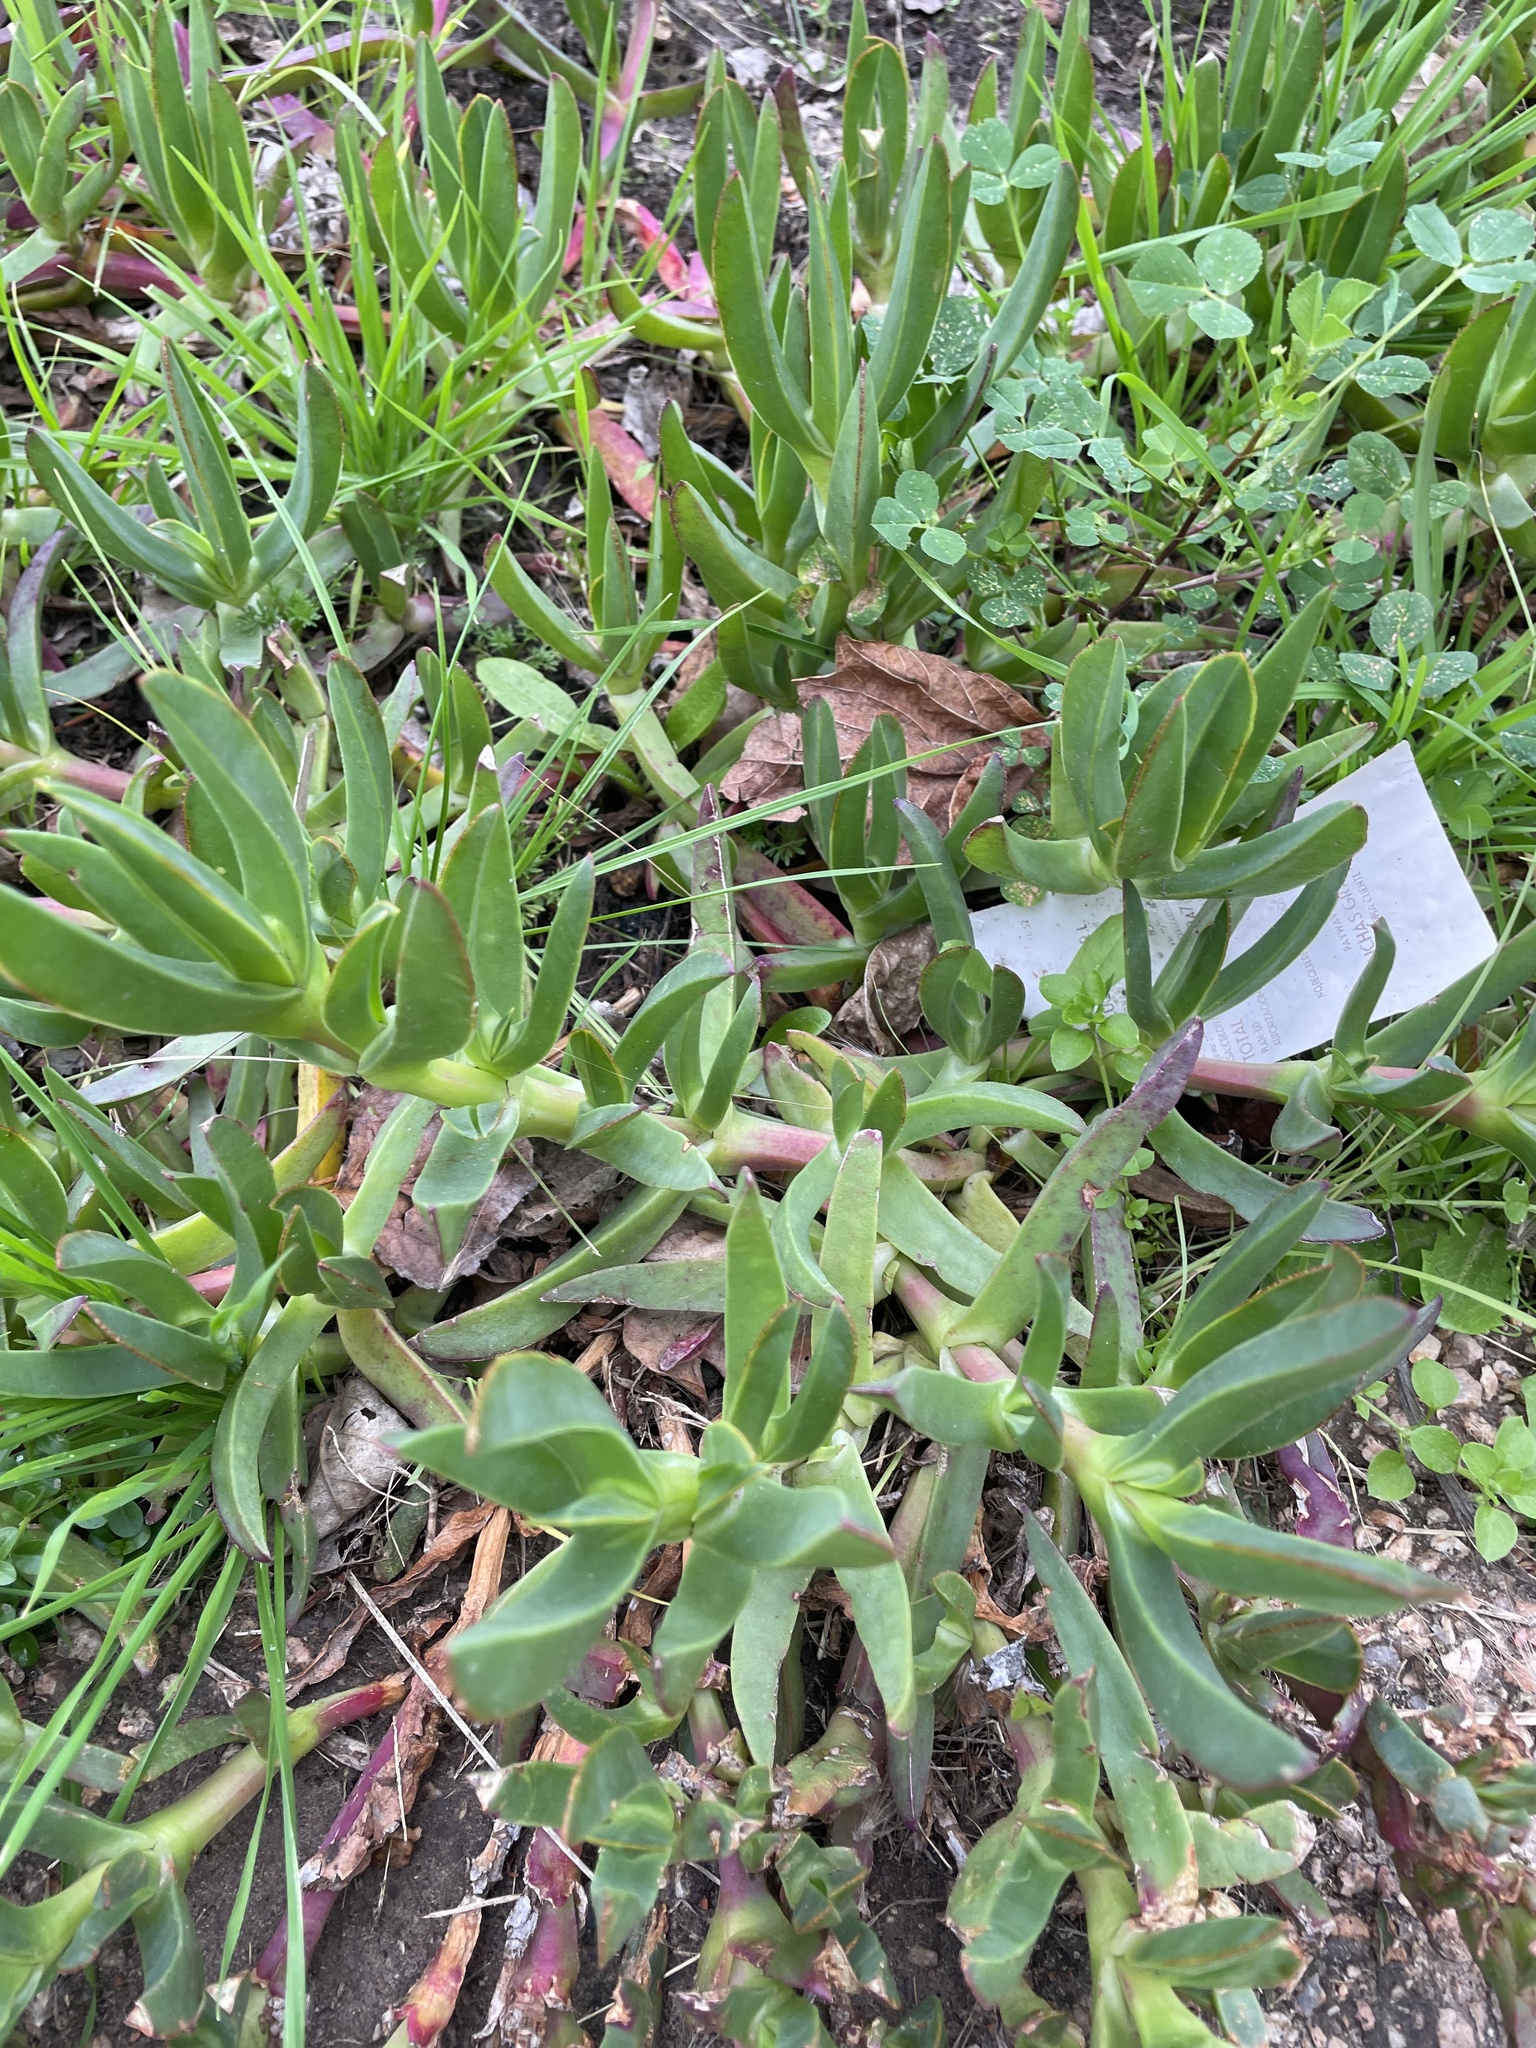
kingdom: Plantae
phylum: Tracheophyta
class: Magnoliopsida
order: Caryophyllales
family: Aizoaceae
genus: Carpobrotus
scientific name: Carpobrotus edulis
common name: Hottentot-fig
